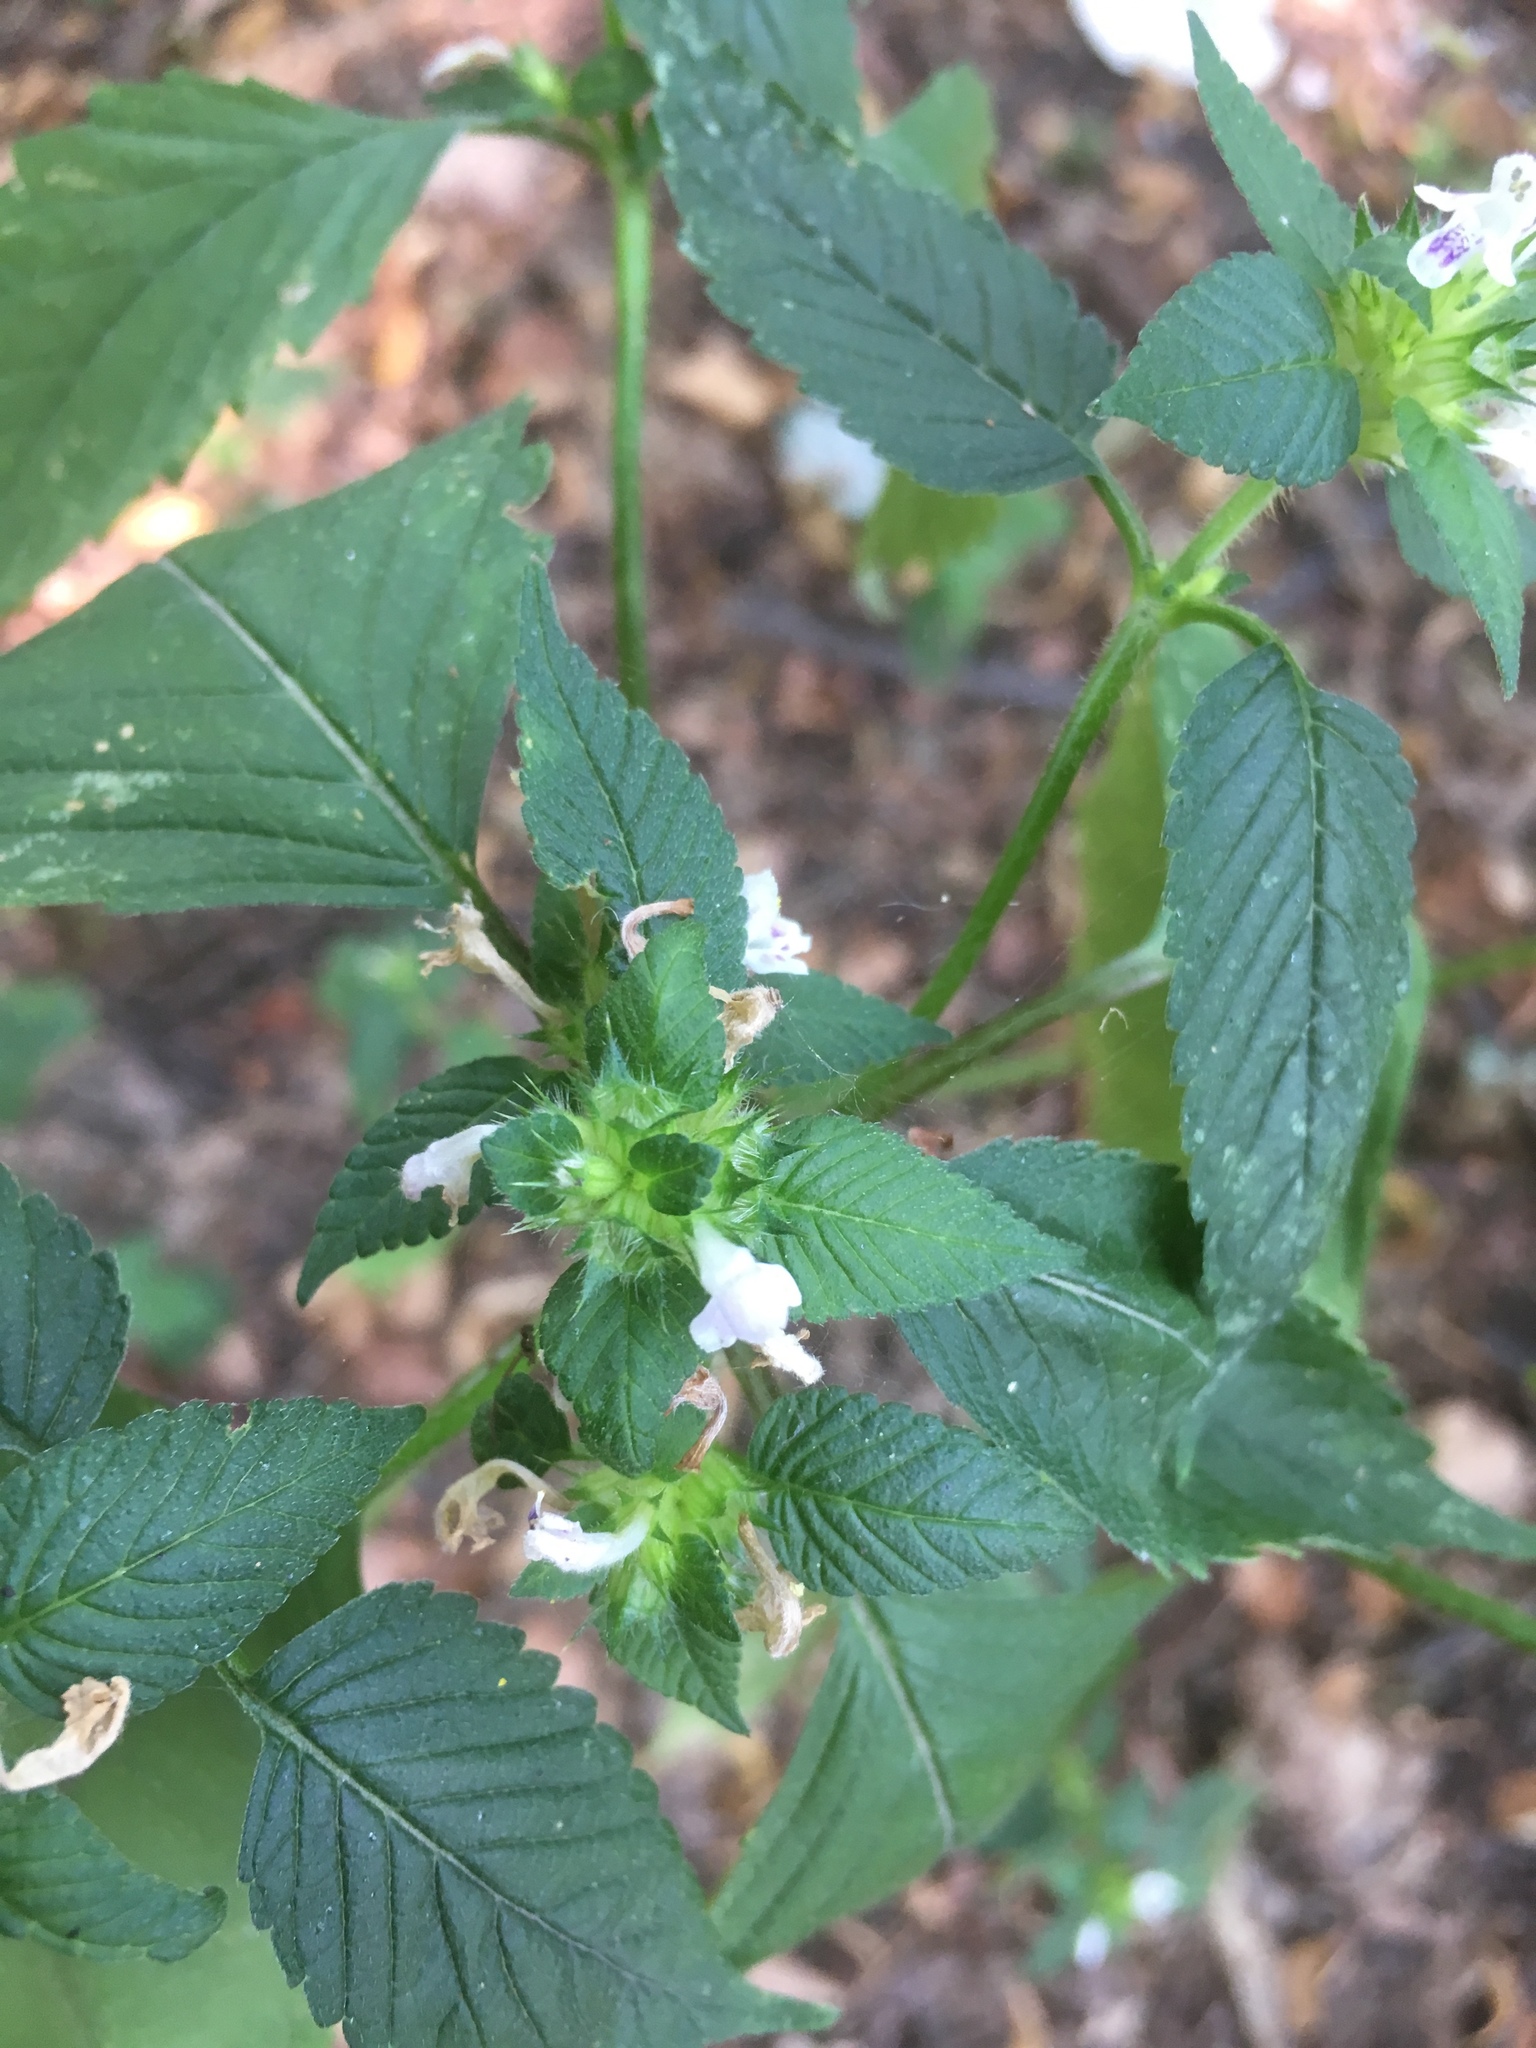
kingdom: Plantae
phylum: Tracheophyta
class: Magnoliopsida
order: Lamiales
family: Lamiaceae
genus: Galeopsis
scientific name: Galeopsis tetrahit
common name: Common hemp-nettle
